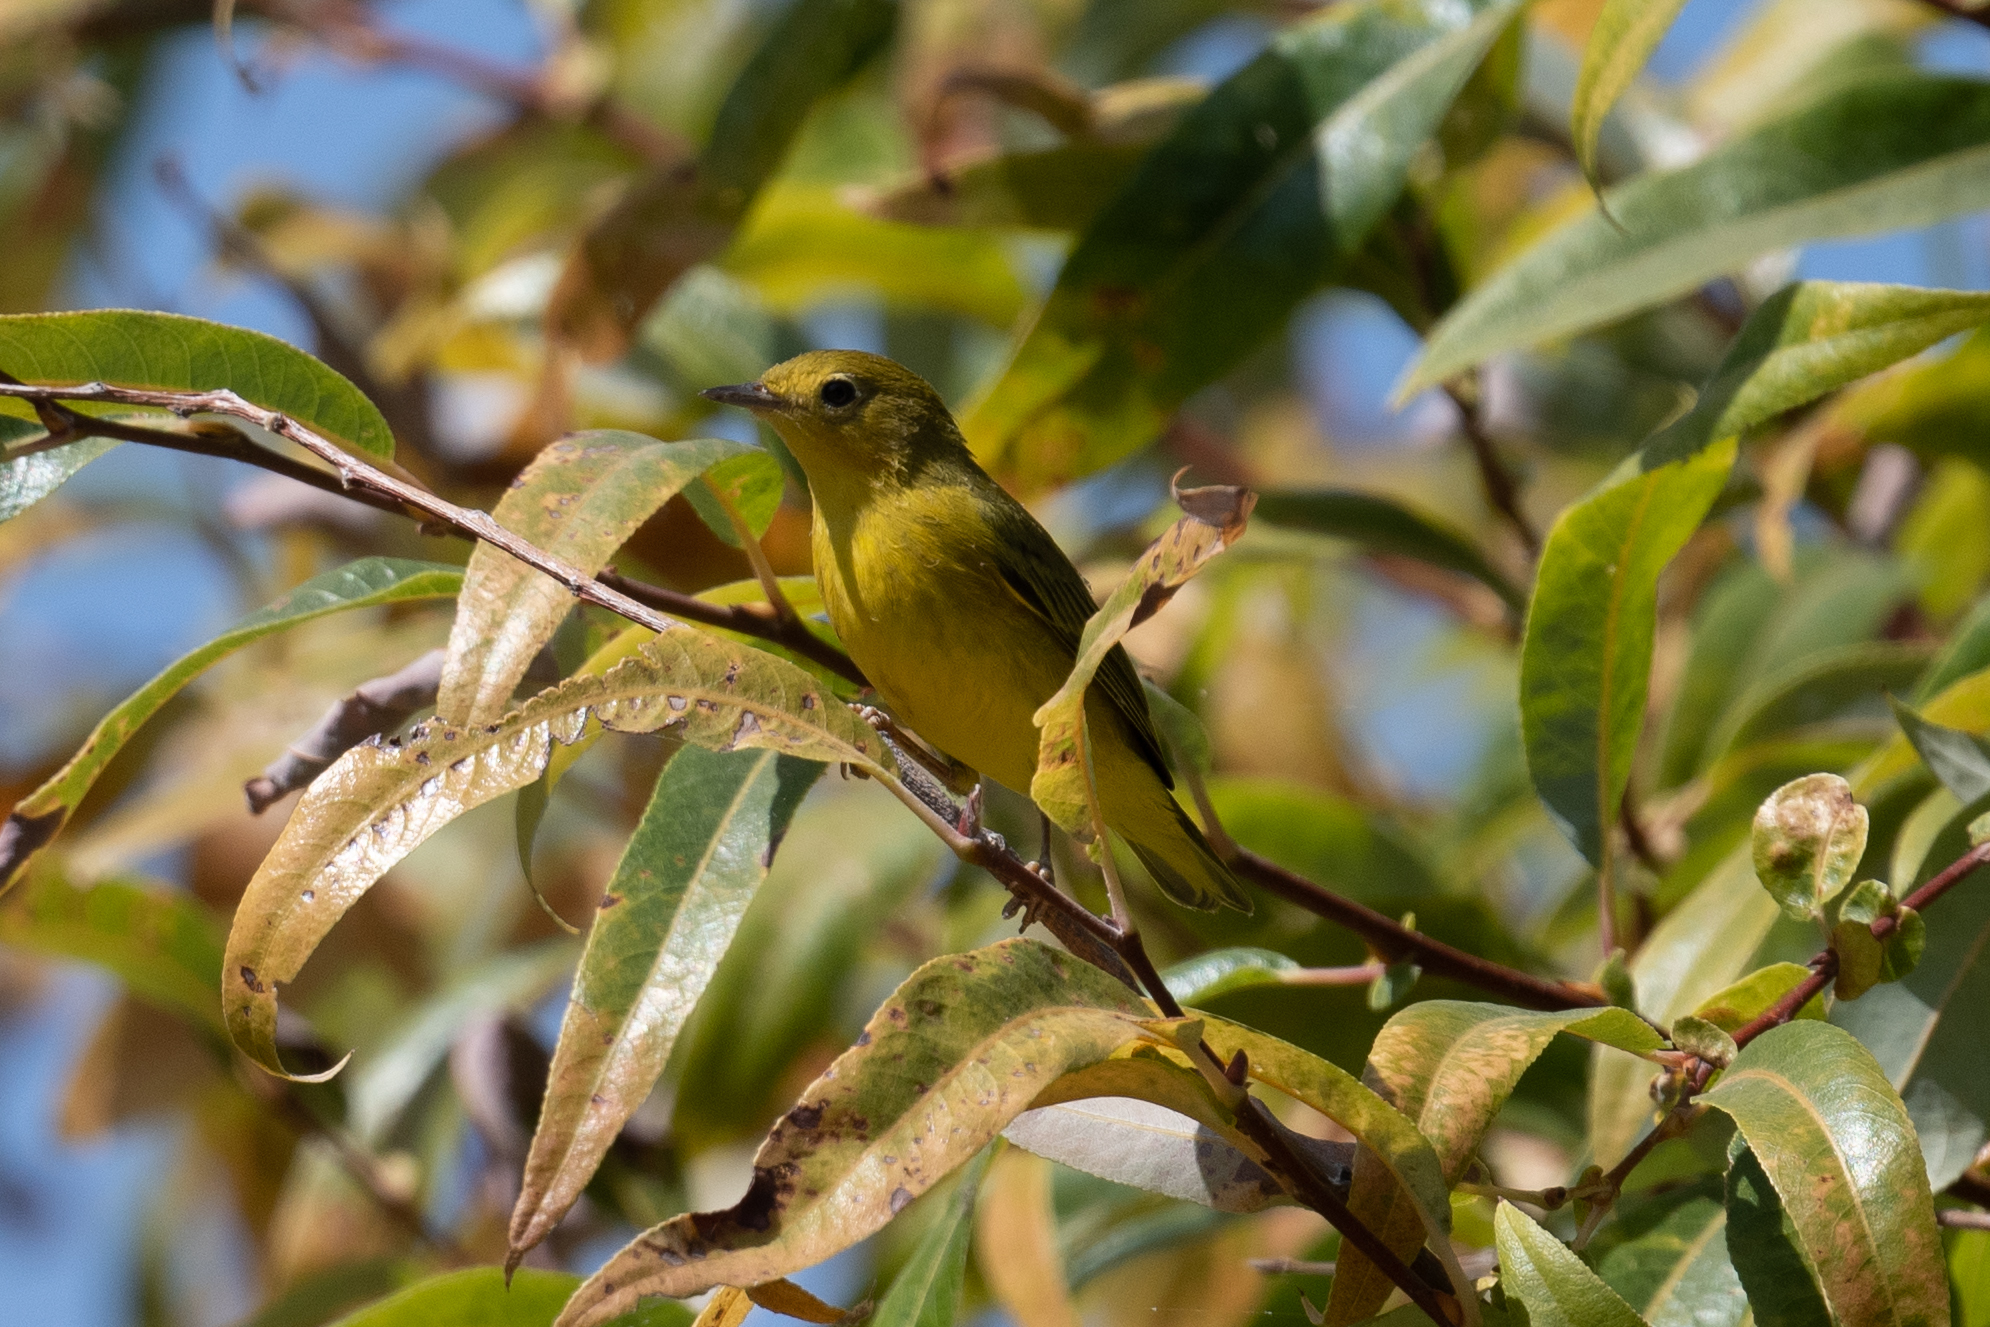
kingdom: Animalia
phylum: Chordata
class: Aves
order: Passeriformes
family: Parulidae
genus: Setophaga
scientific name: Setophaga petechia
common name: Yellow warbler
